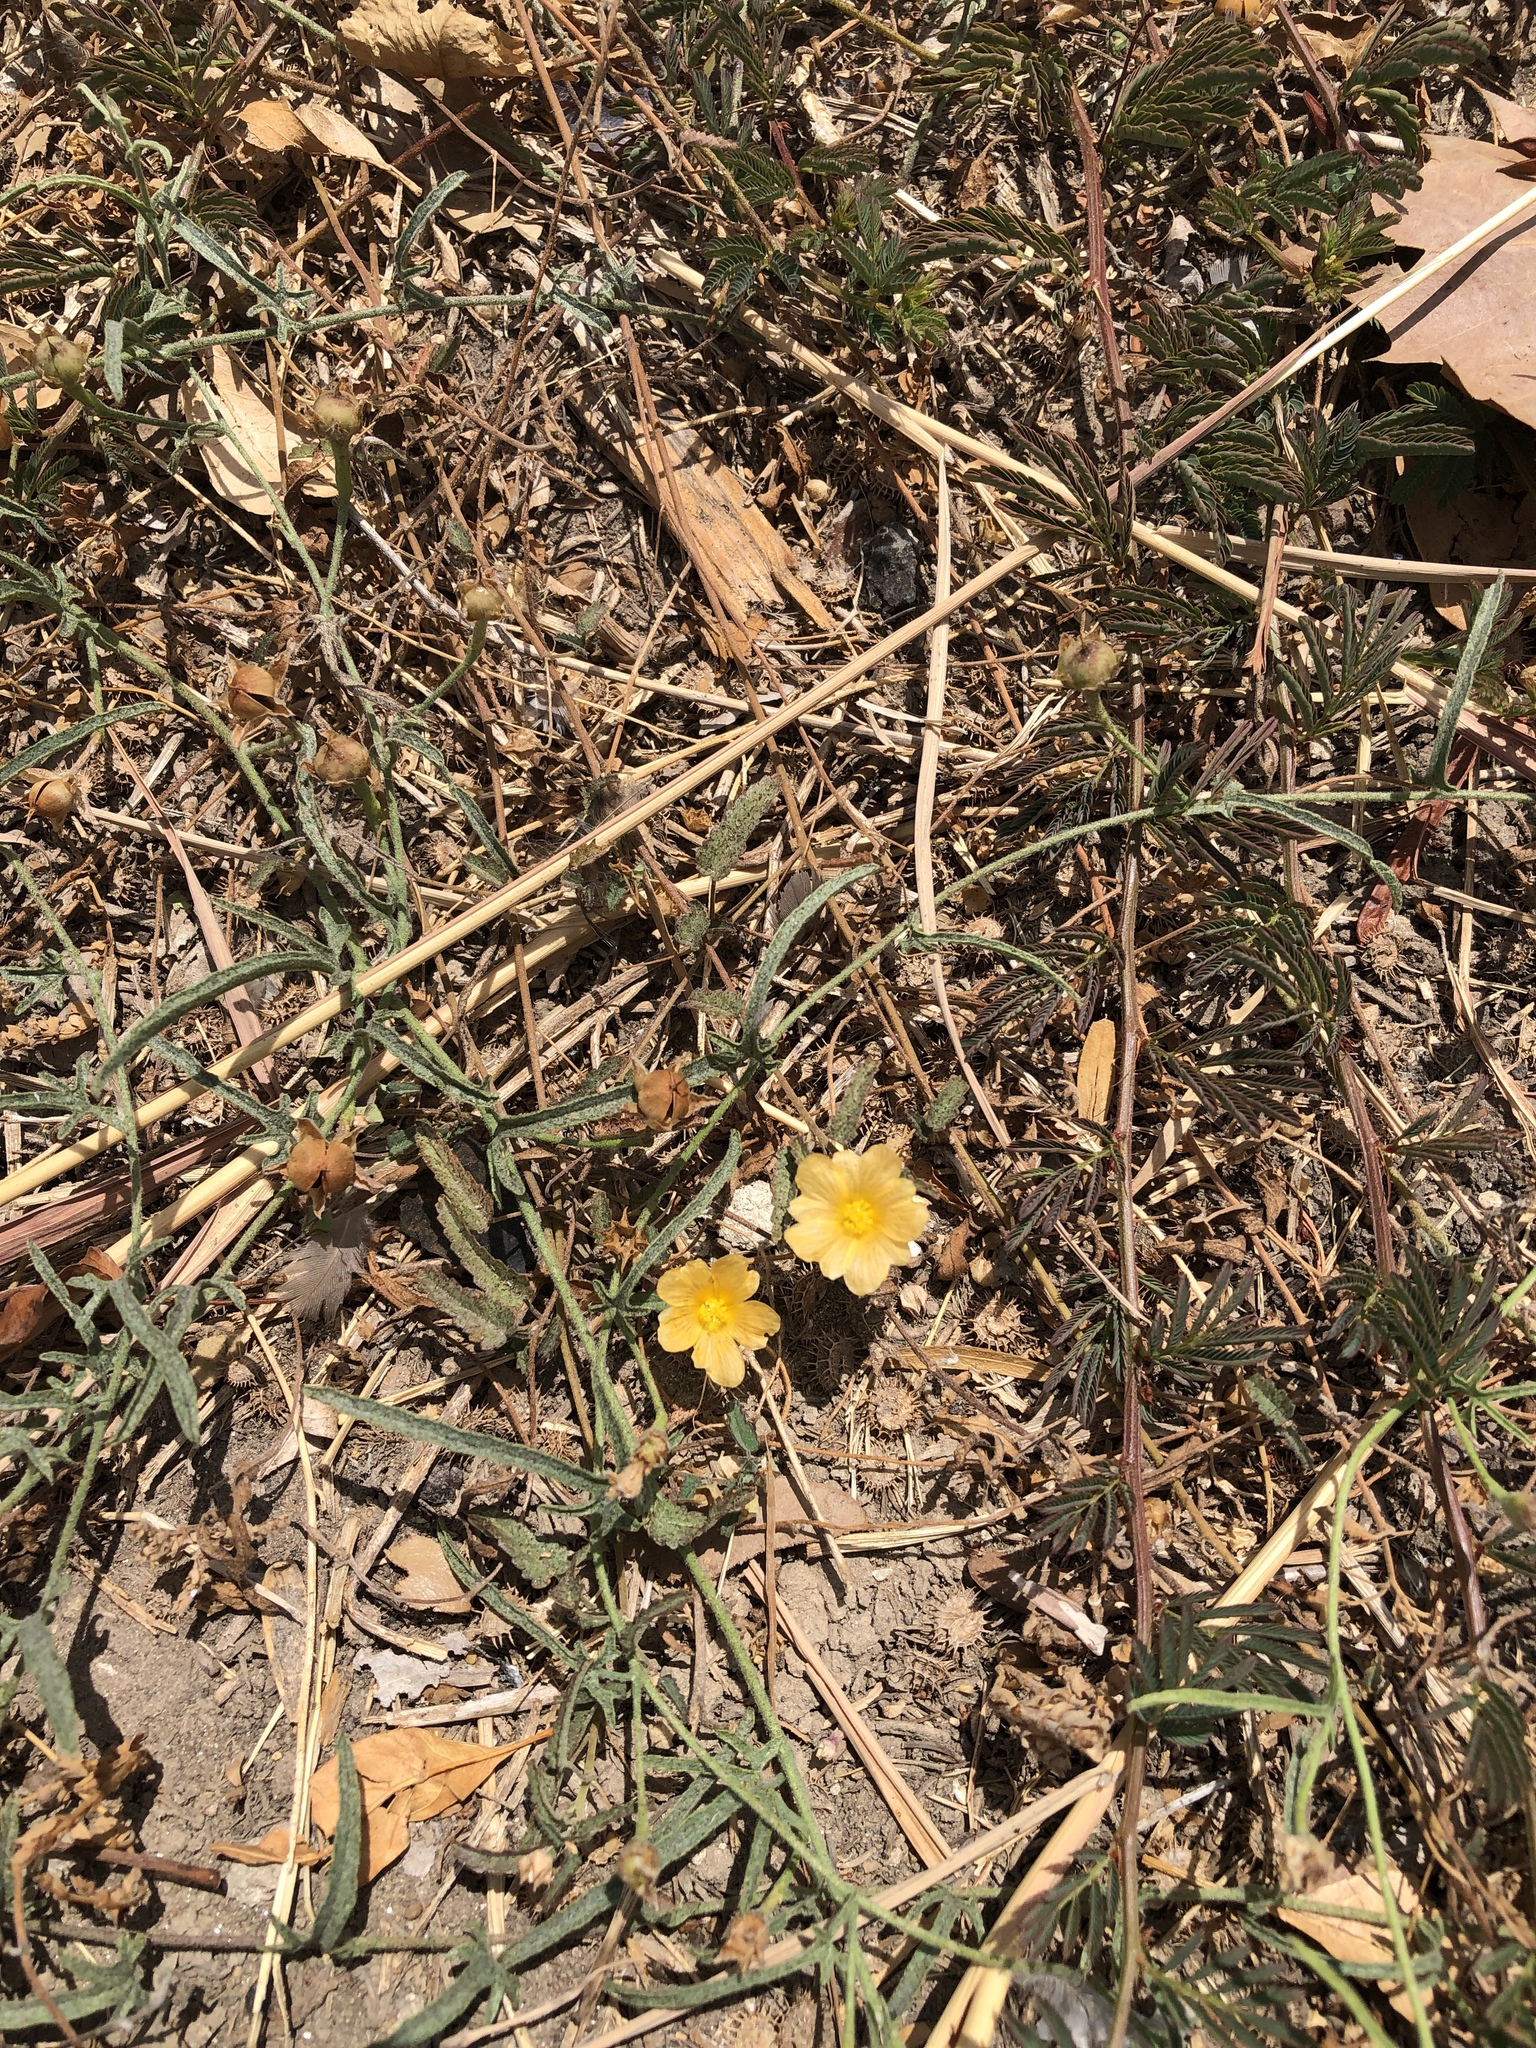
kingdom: Plantae
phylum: Tracheophyta
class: Magnoliopsida
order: Malvales
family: Malvaceae
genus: Sida
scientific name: Sida abutilifolia
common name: Spreading fanpetals
